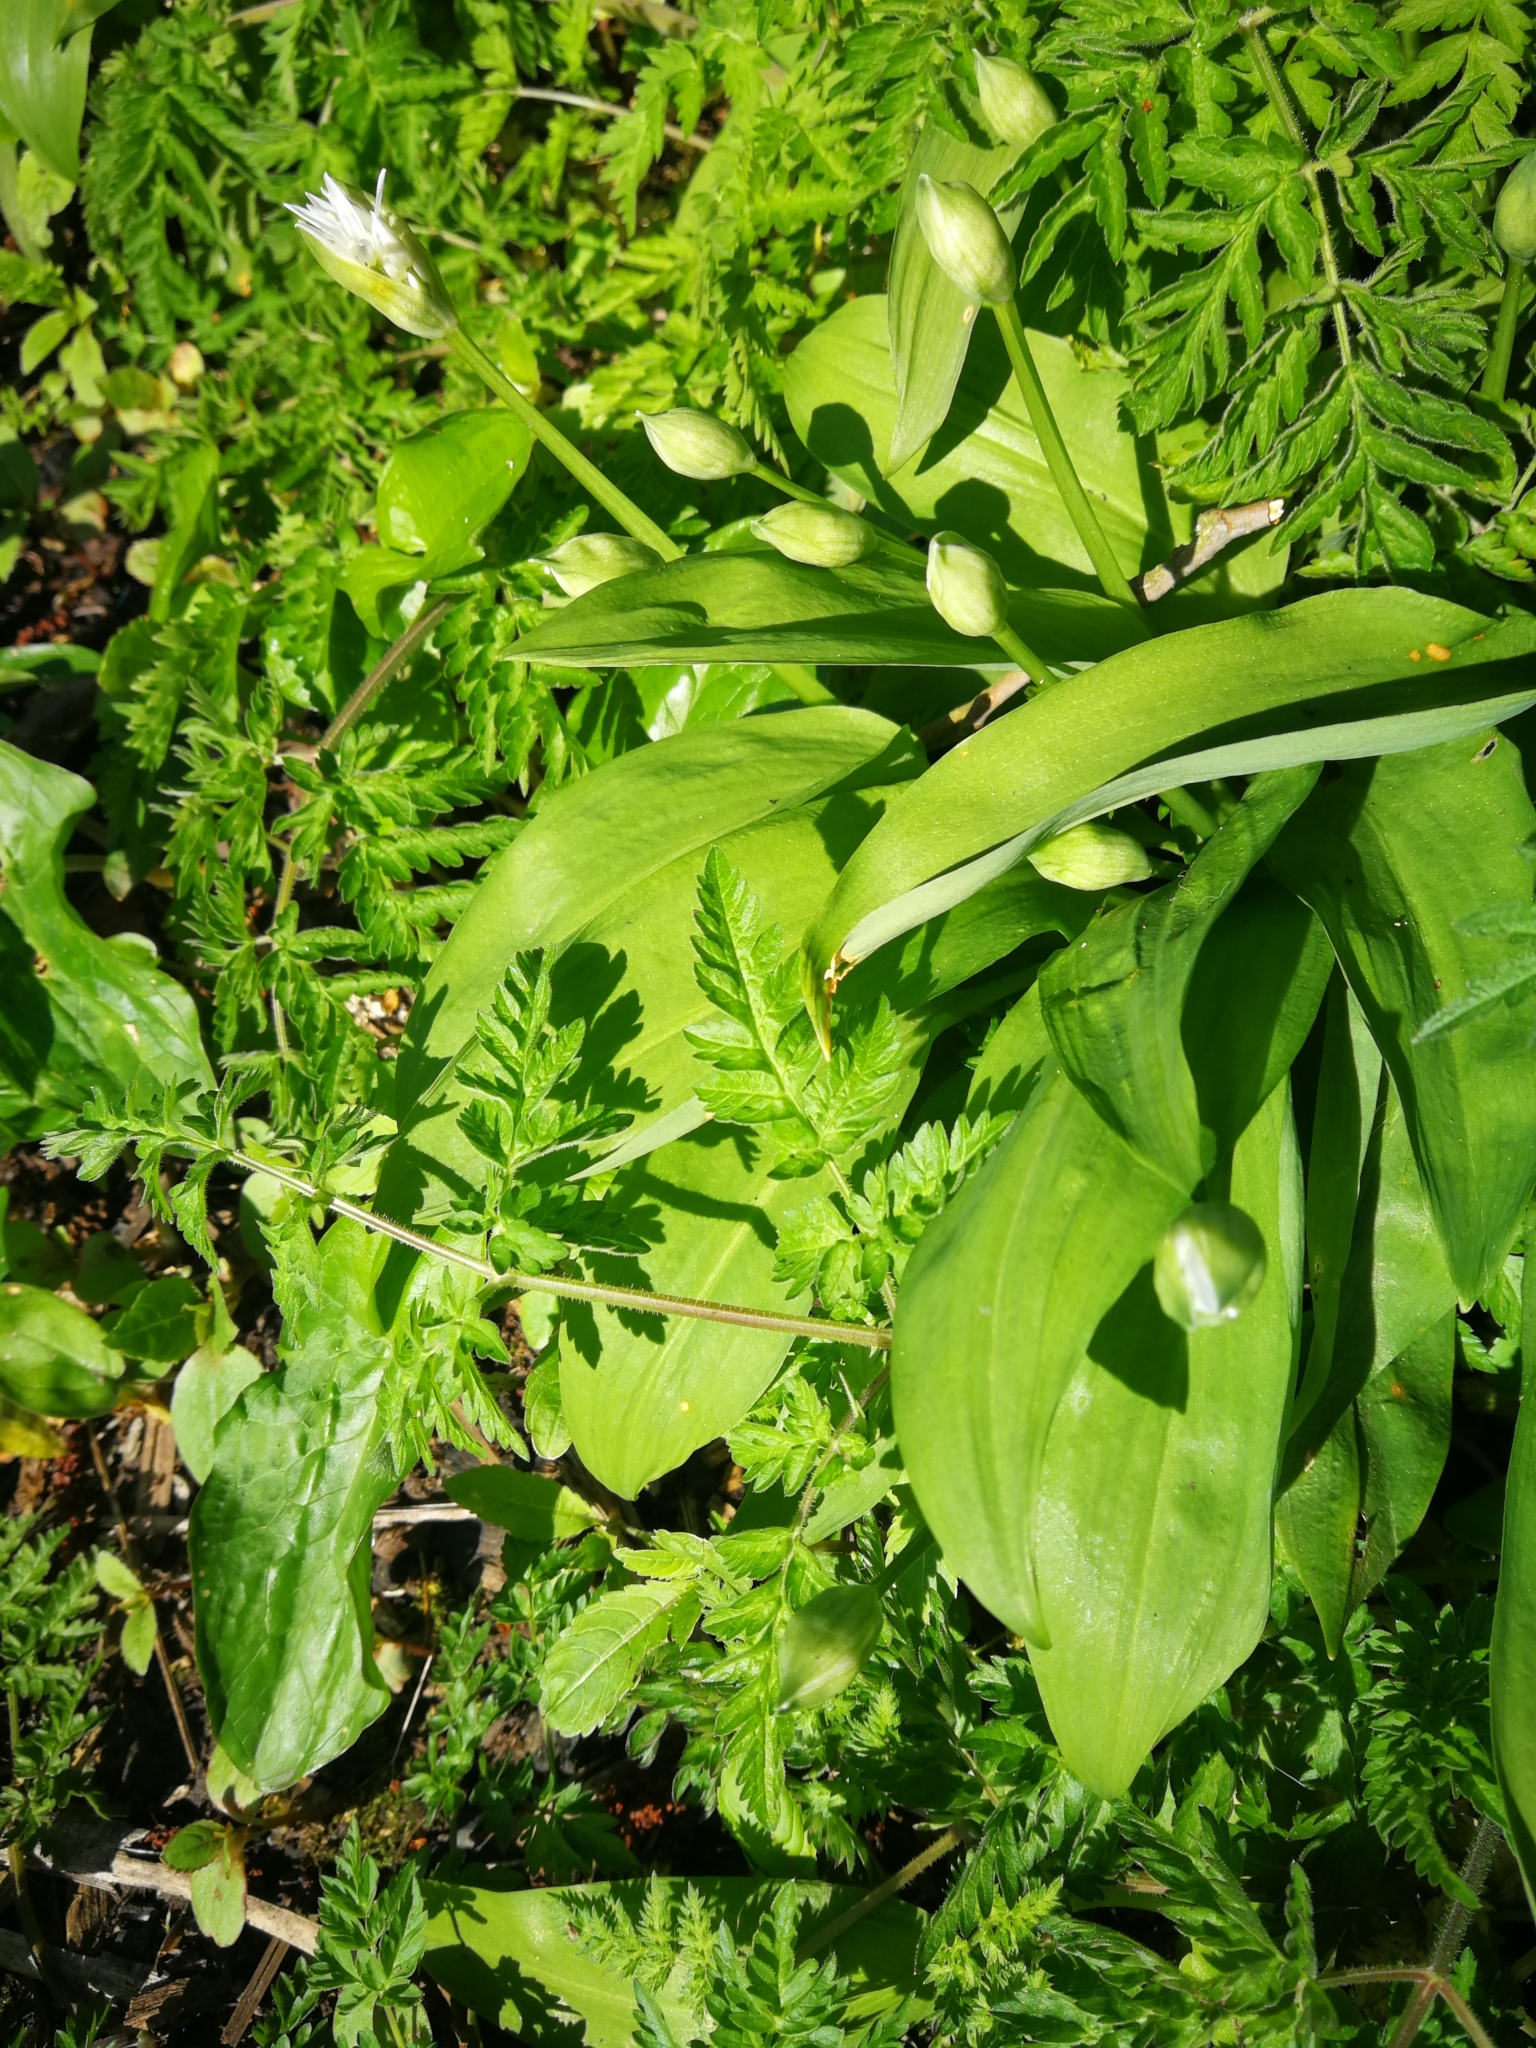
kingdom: Plantae
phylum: Tracheophyta
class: Liliopsida
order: Asparagales
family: Amaryllidaceae
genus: Allium
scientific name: Allium ursinum
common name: Ramsons
